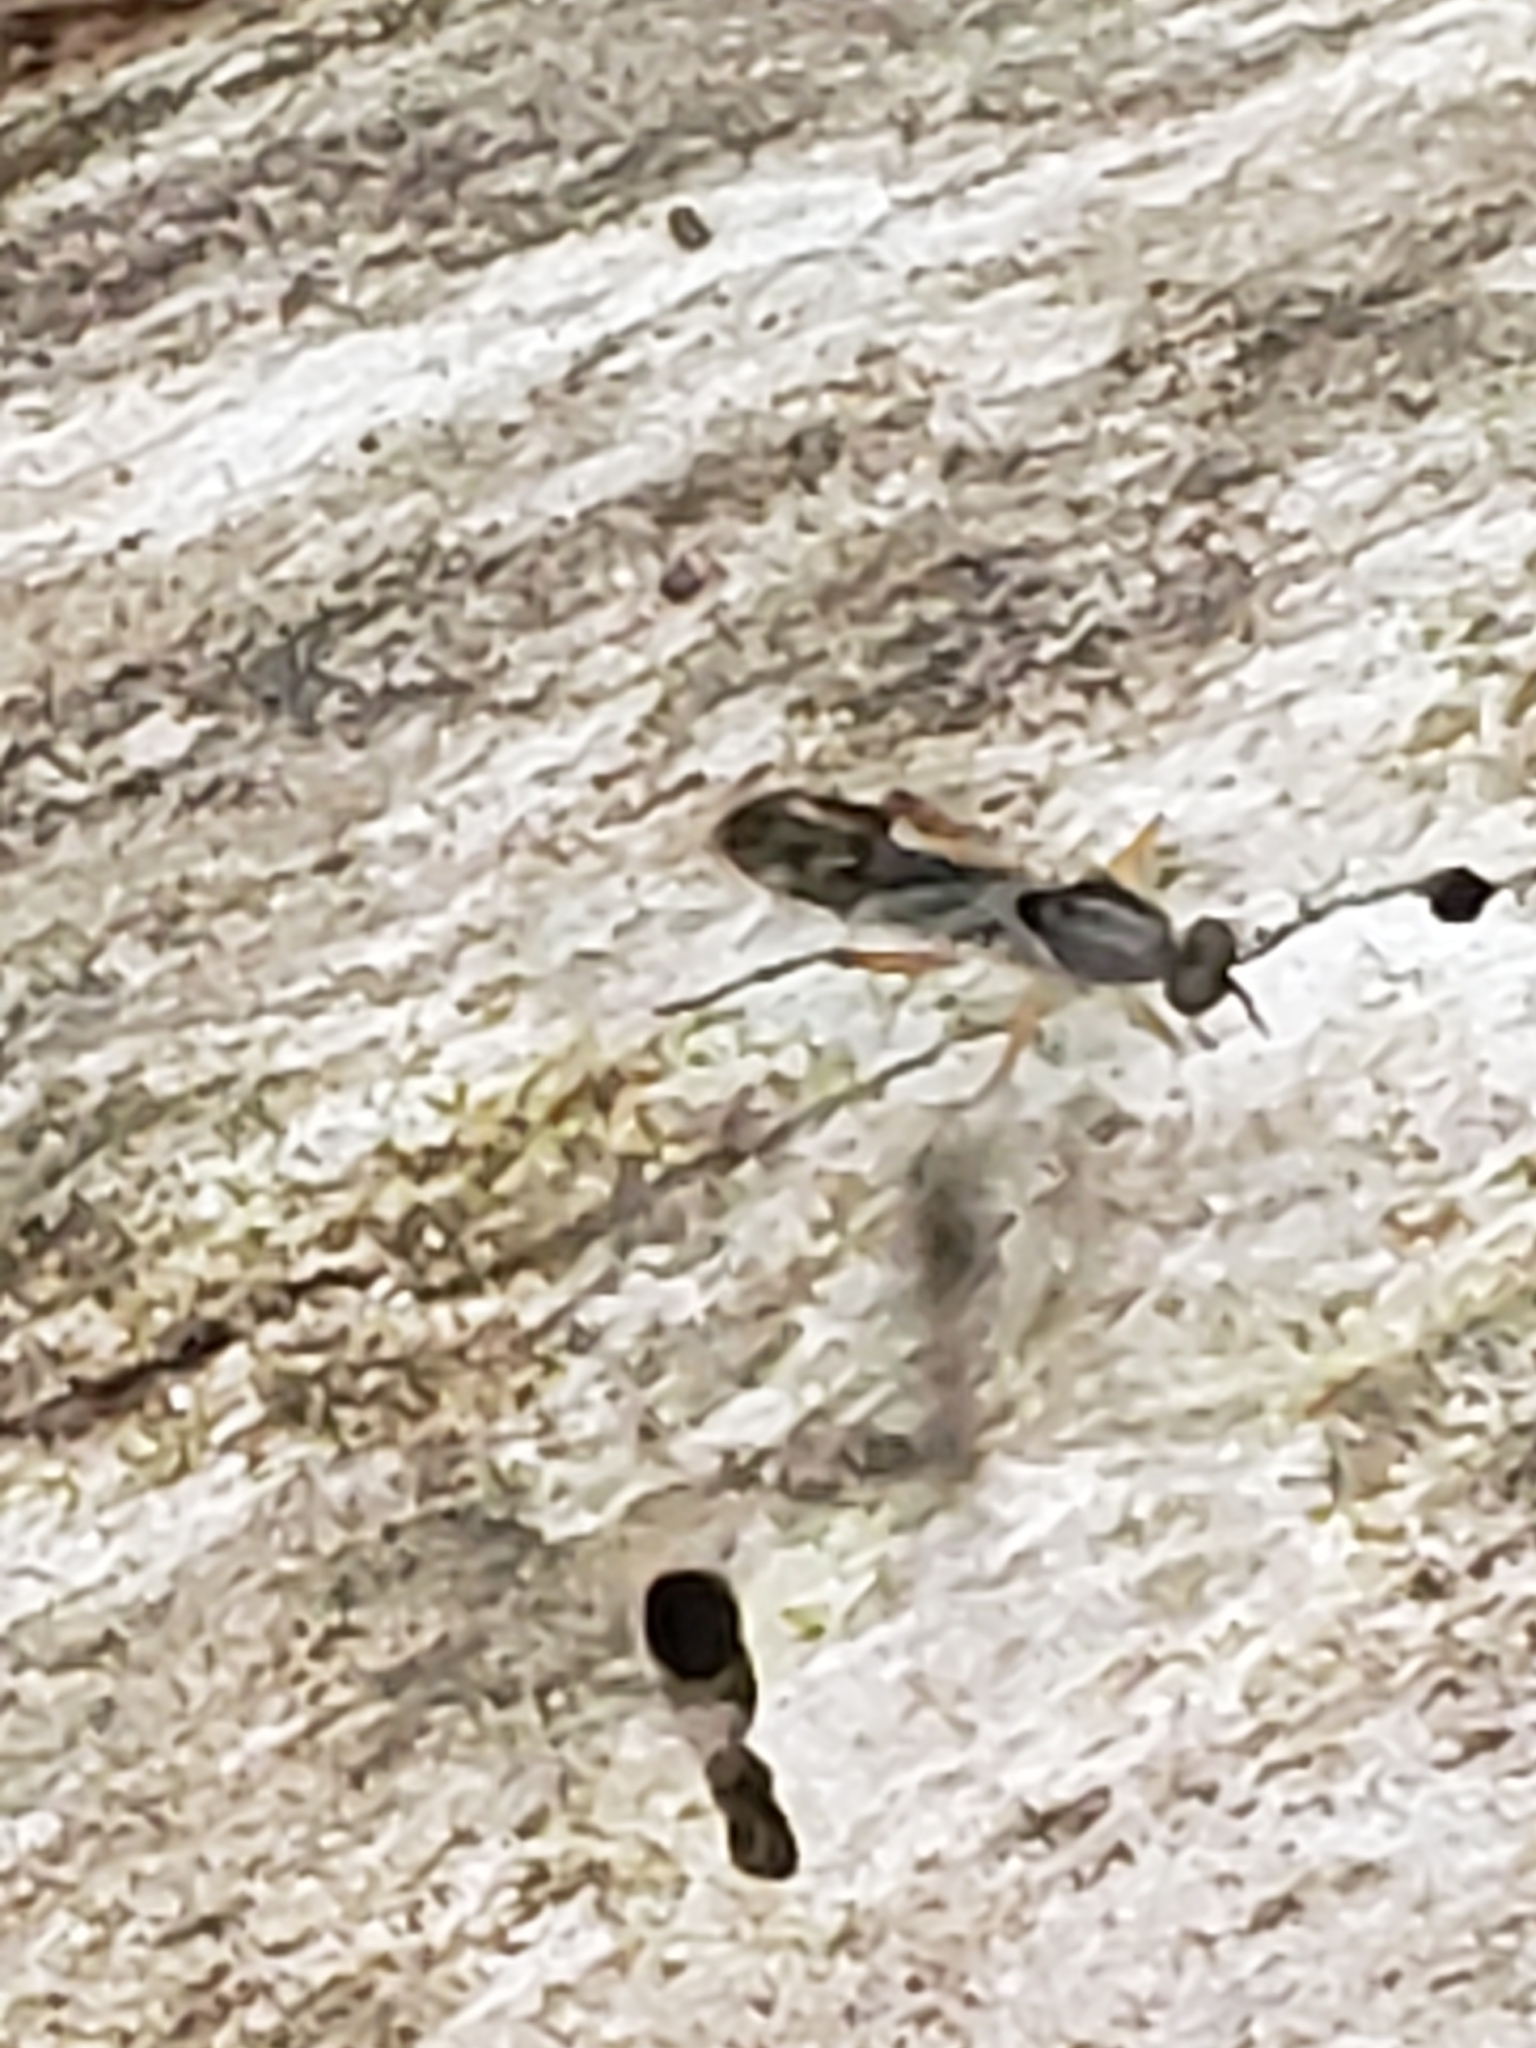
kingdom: Animalia
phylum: Arthropoda
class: Insecta
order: Diptera
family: Xylophagidae
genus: Xylophagus
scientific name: Xylophagus reflectens
